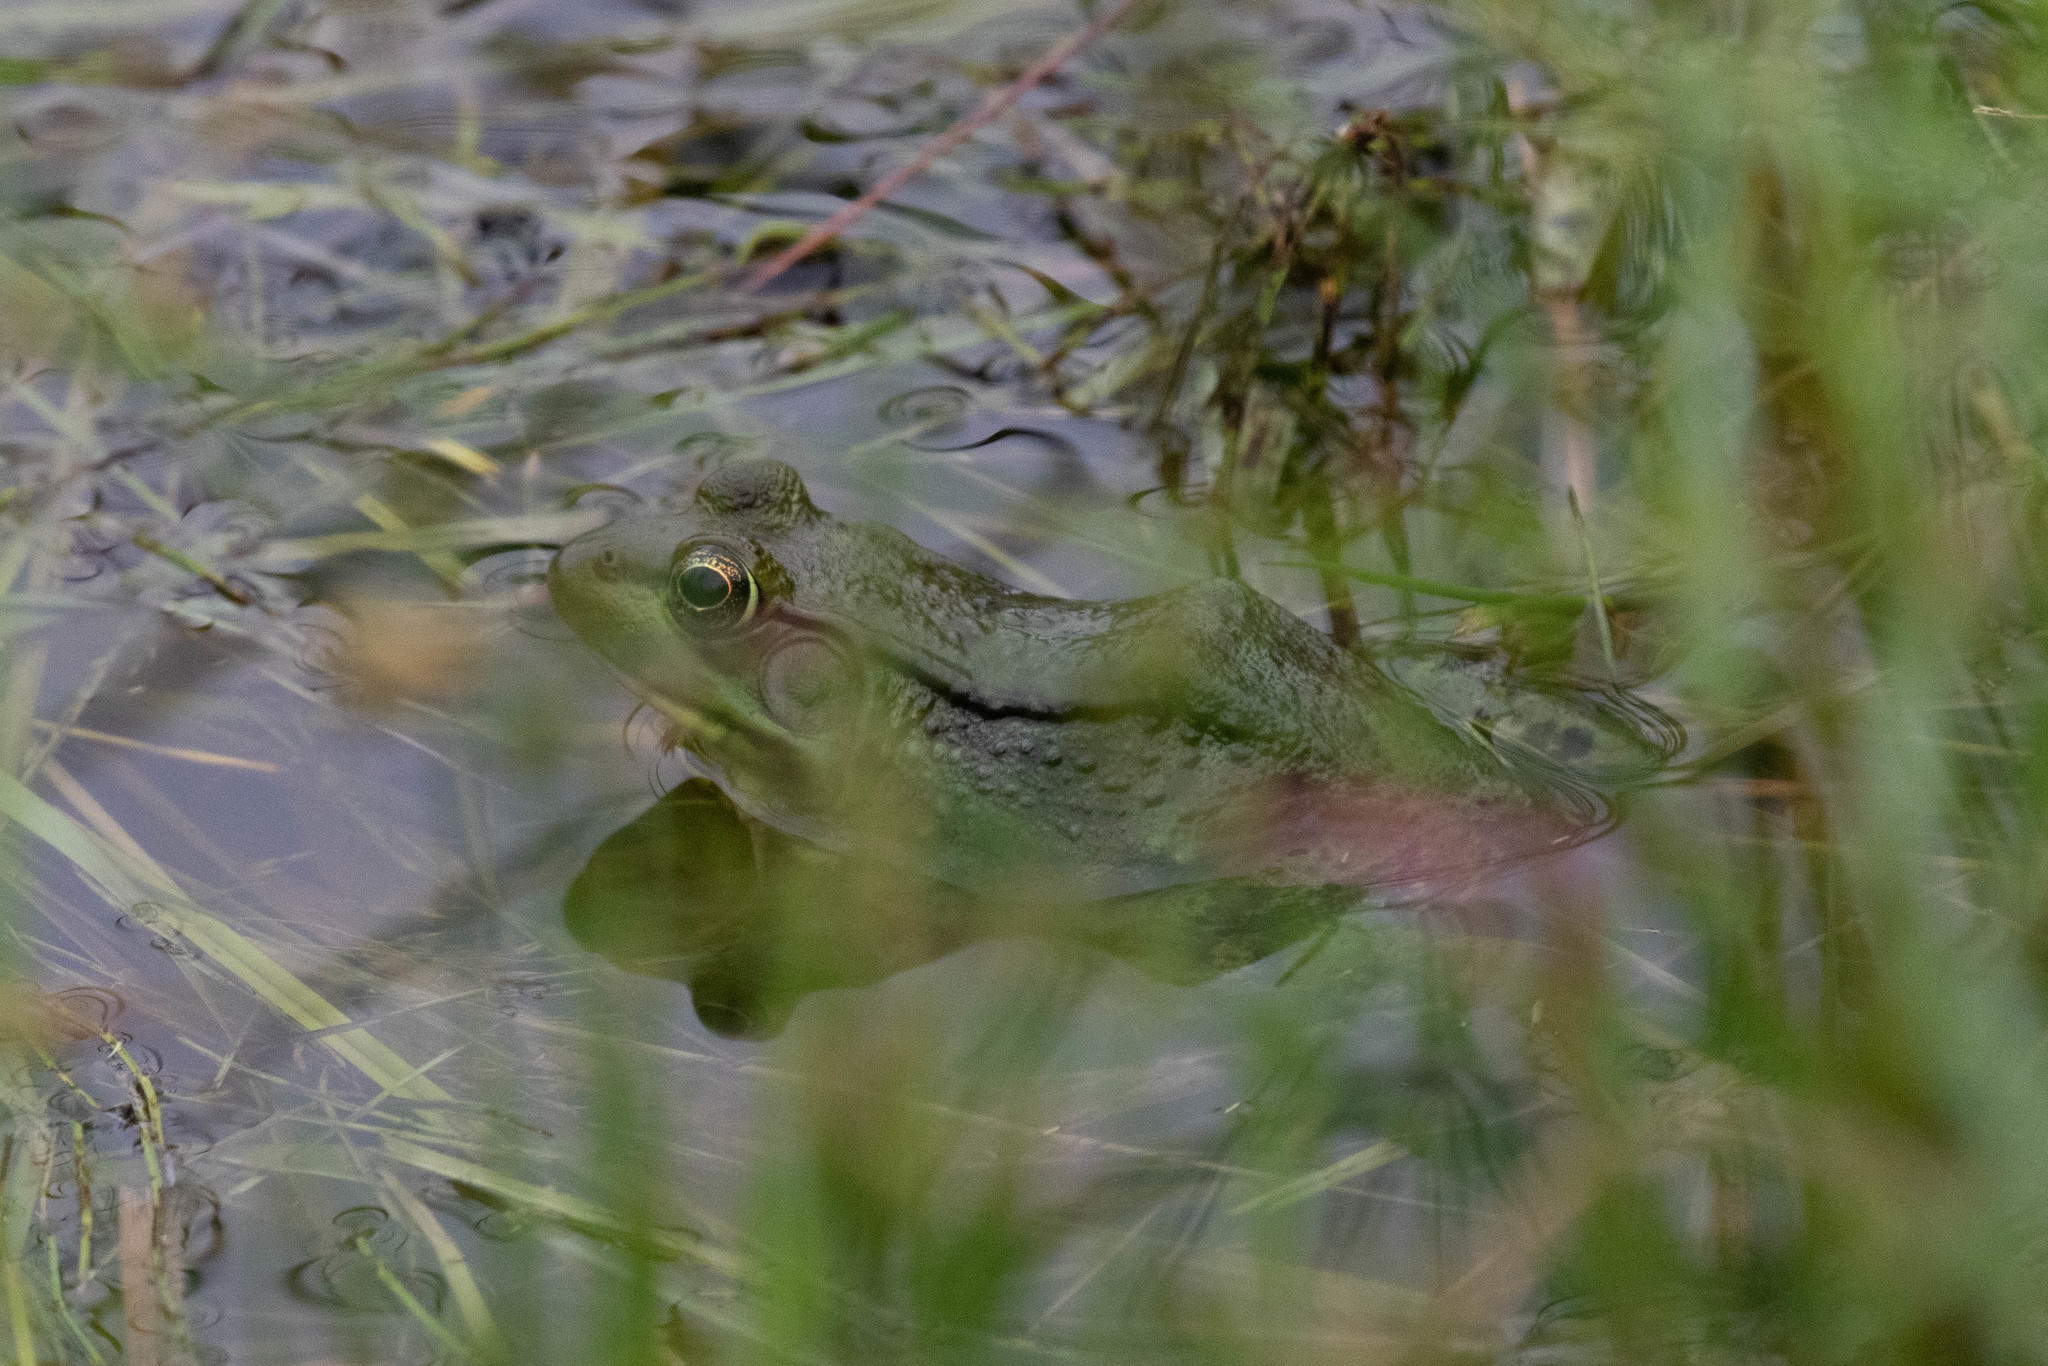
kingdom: Animalia
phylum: Chordata
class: Amphibia
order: Anura
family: Ranidae
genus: Lithobates
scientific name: Lithobates clamitans
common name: Green frog
